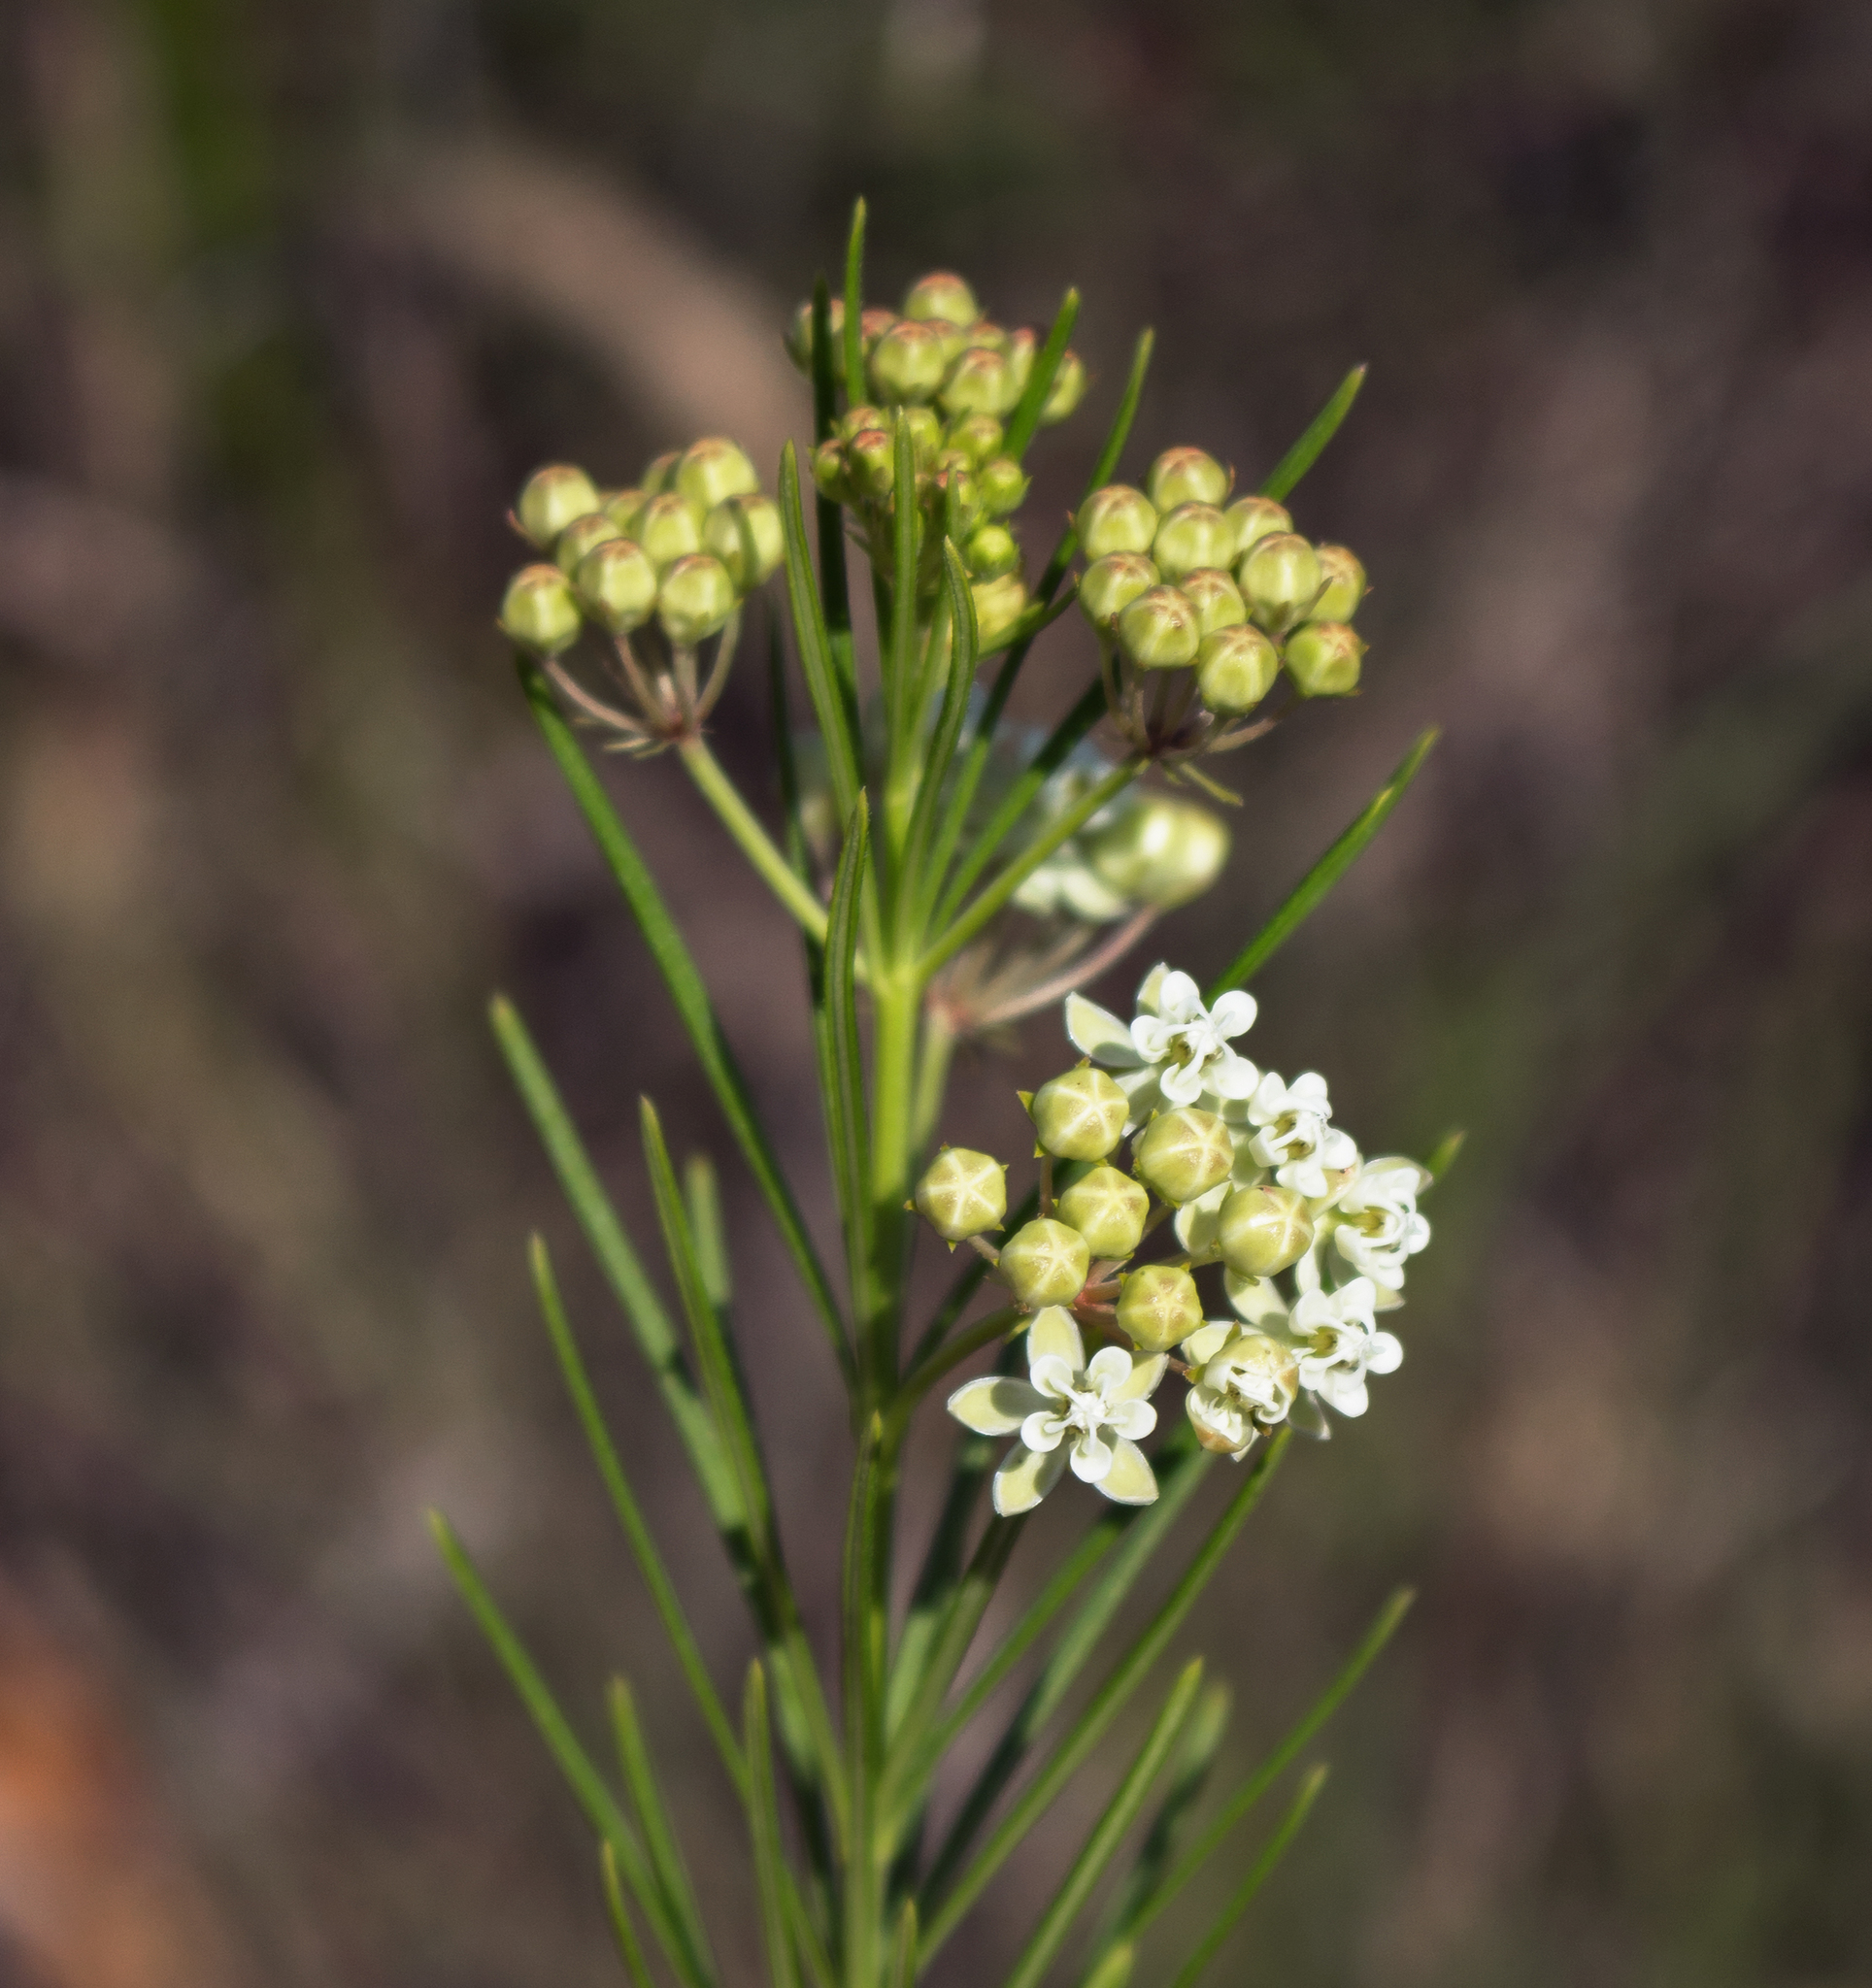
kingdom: Plantae
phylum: Tracheophyta
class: Magnoliopsida
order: Gentianales
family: Apocynaceae
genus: Asclepias
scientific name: Asclepias verticillata
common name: Eastern whorled milkweed
